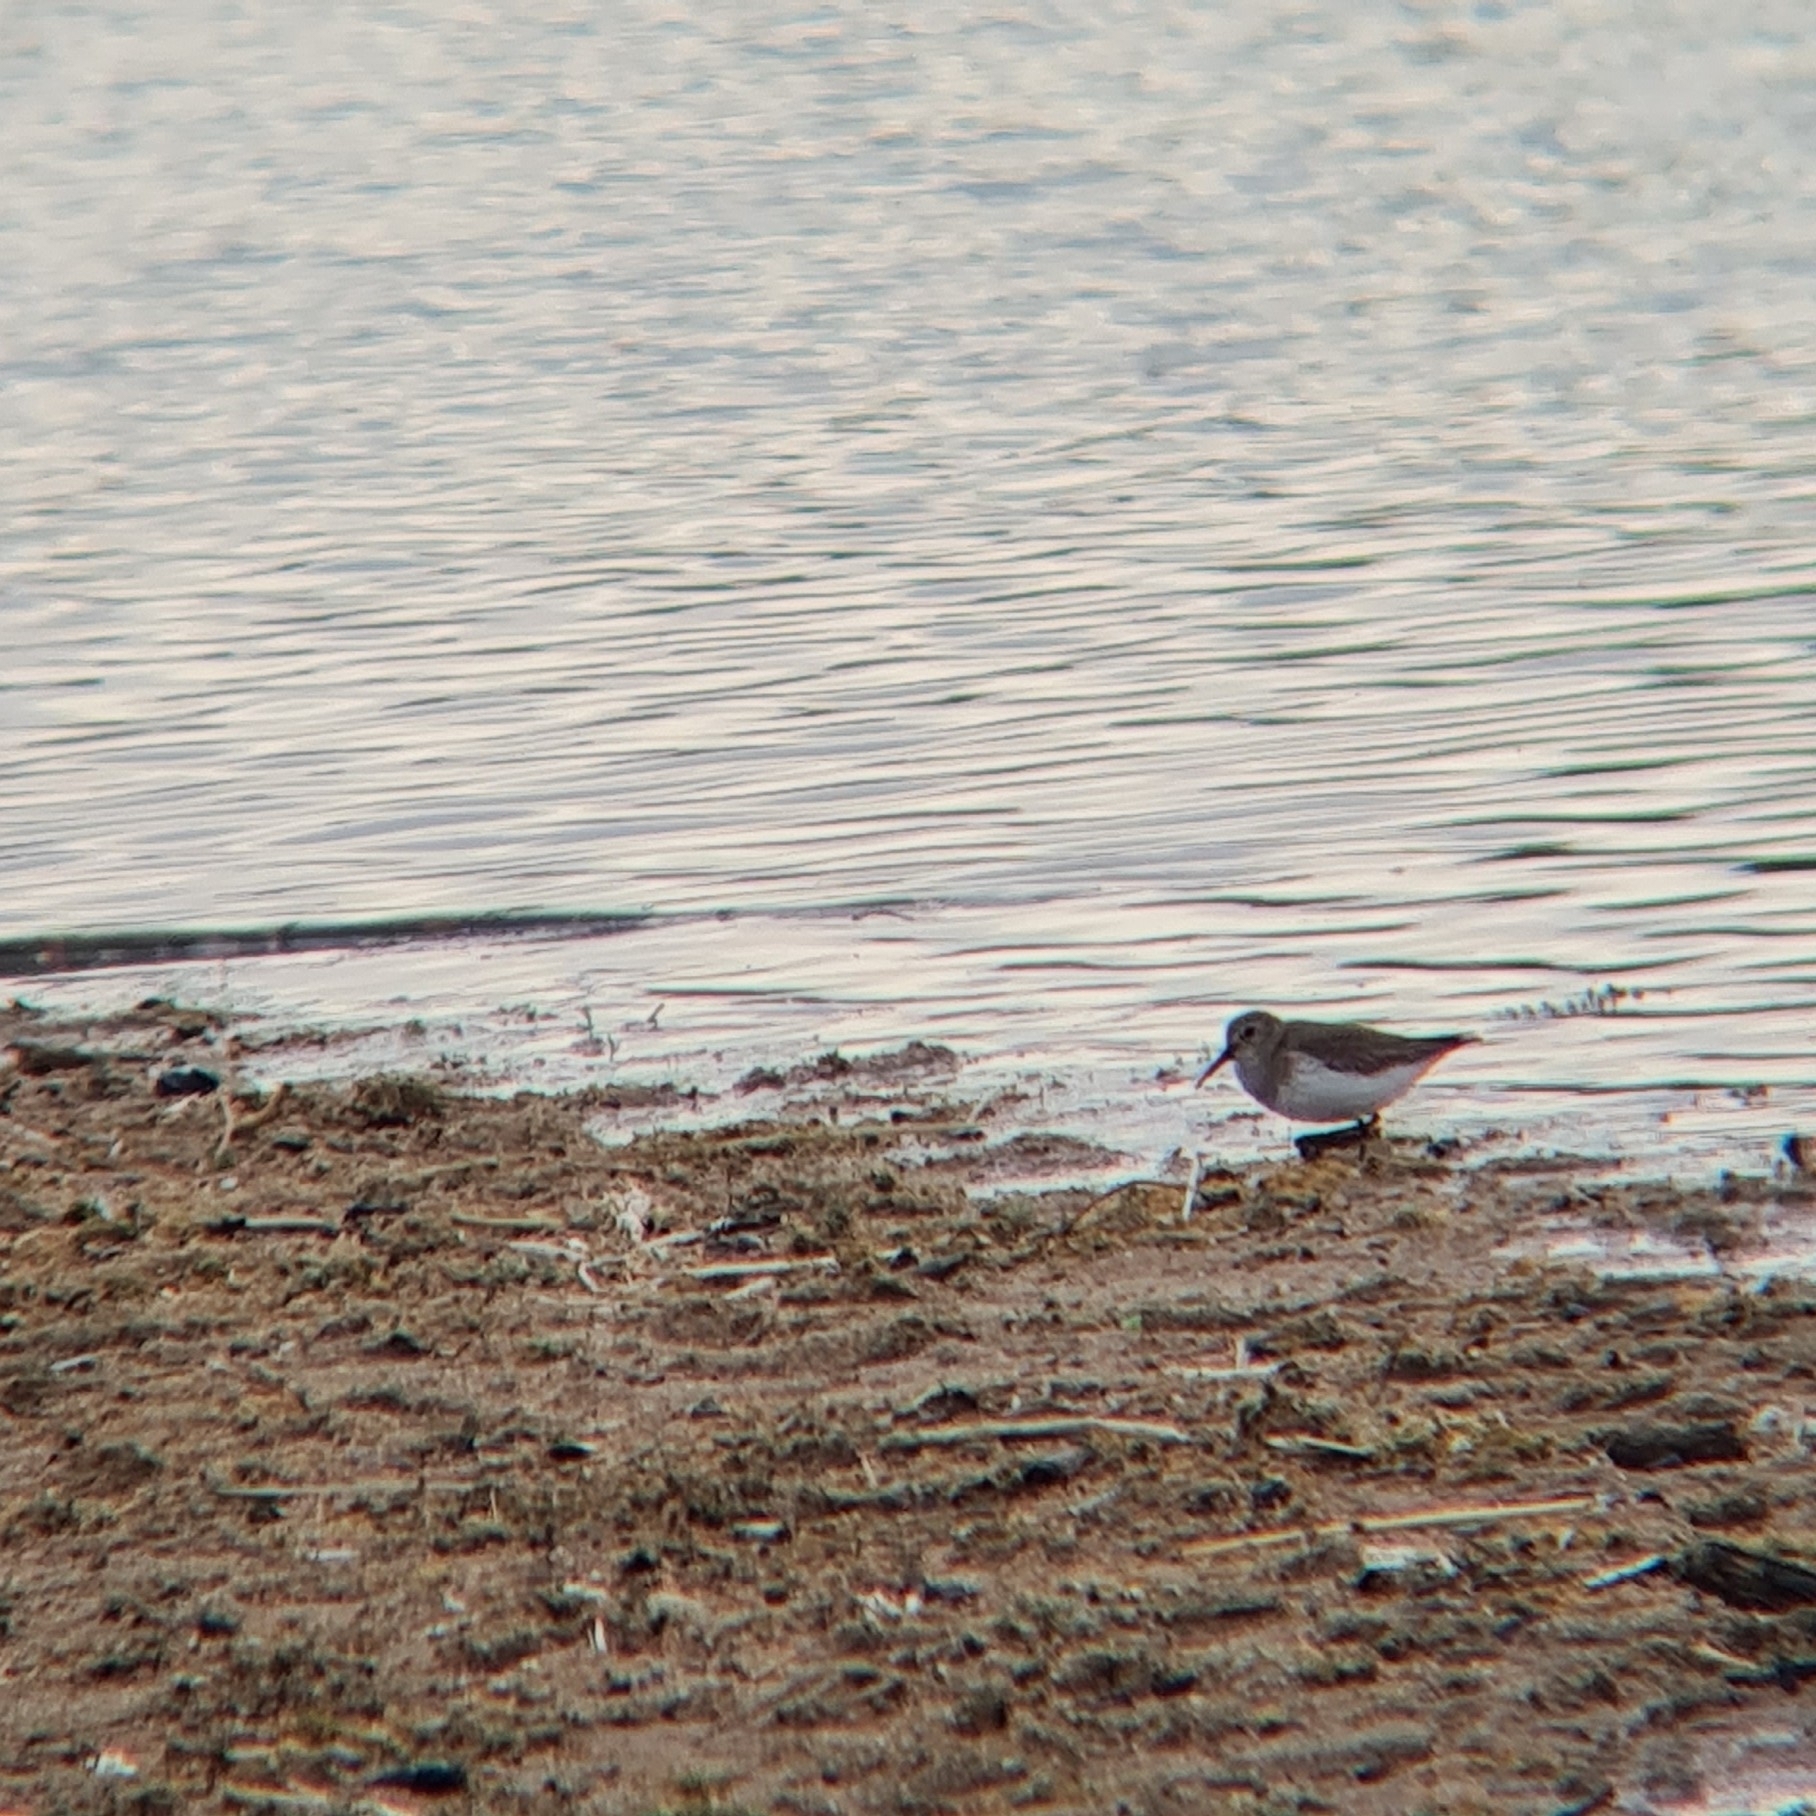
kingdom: Animalia
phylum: Chordata
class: Aves
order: Charadriiformes
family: Scolopacidae
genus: Calidris
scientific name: Calidris alpina
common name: Dunlin
